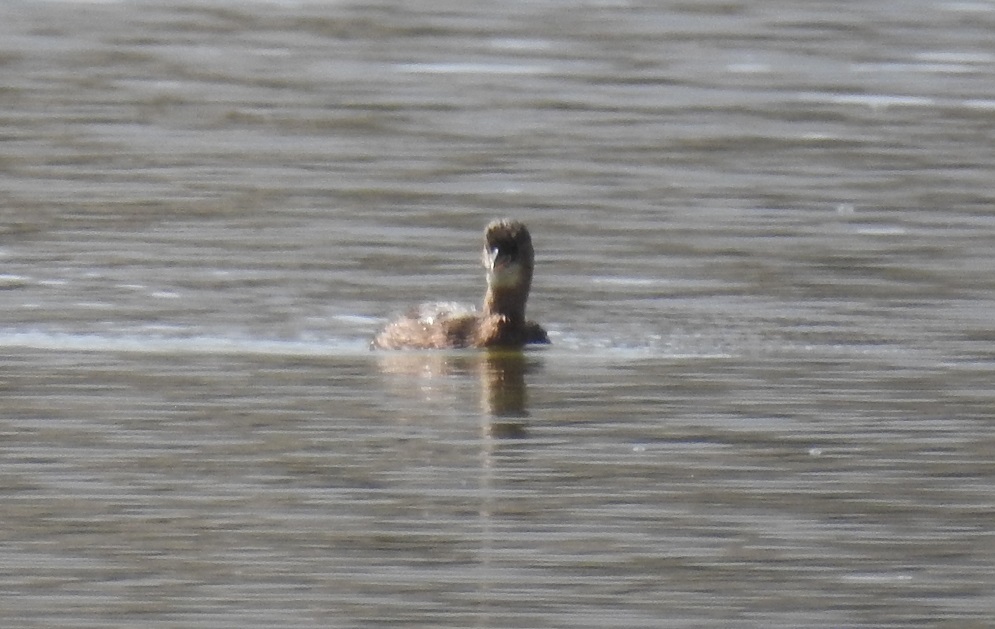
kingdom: Animalia
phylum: Chordata
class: Aves
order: Podicipediformes
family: Podicipedidae
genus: Tachybaptus
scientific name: Tachybaptus ruficollis
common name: Little grebe
